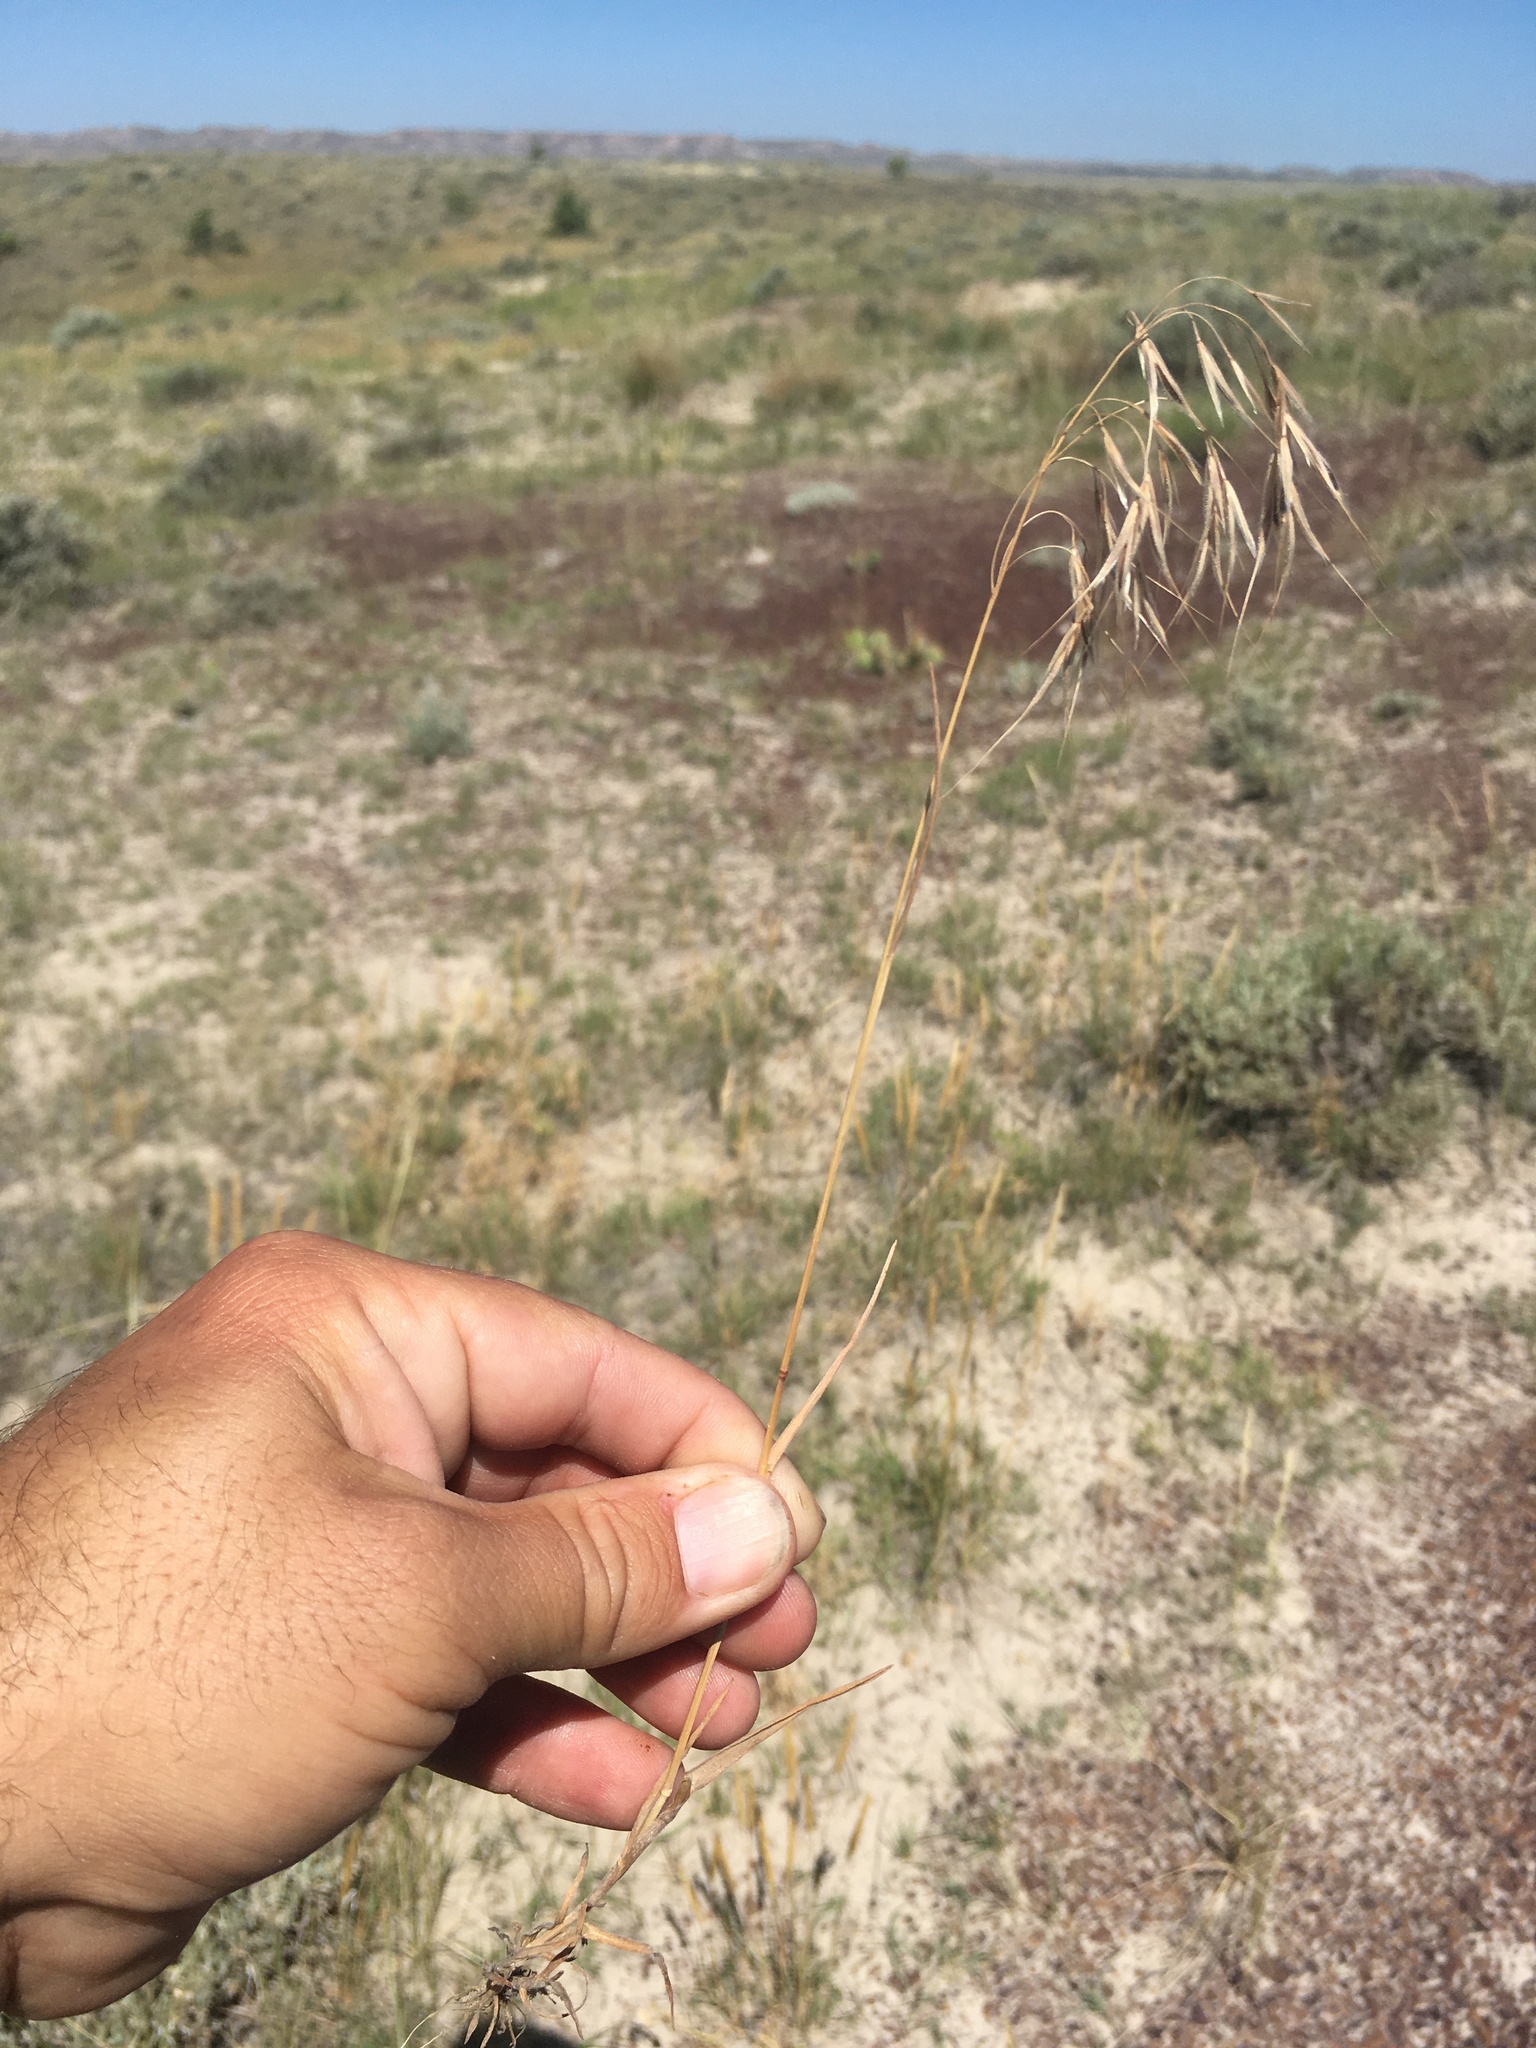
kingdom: Plantae
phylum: Tracheophyta
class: Liliopsida
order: Poales
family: Poaceae
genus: Bromus
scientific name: Bromus tectorum
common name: Cheatgrass
